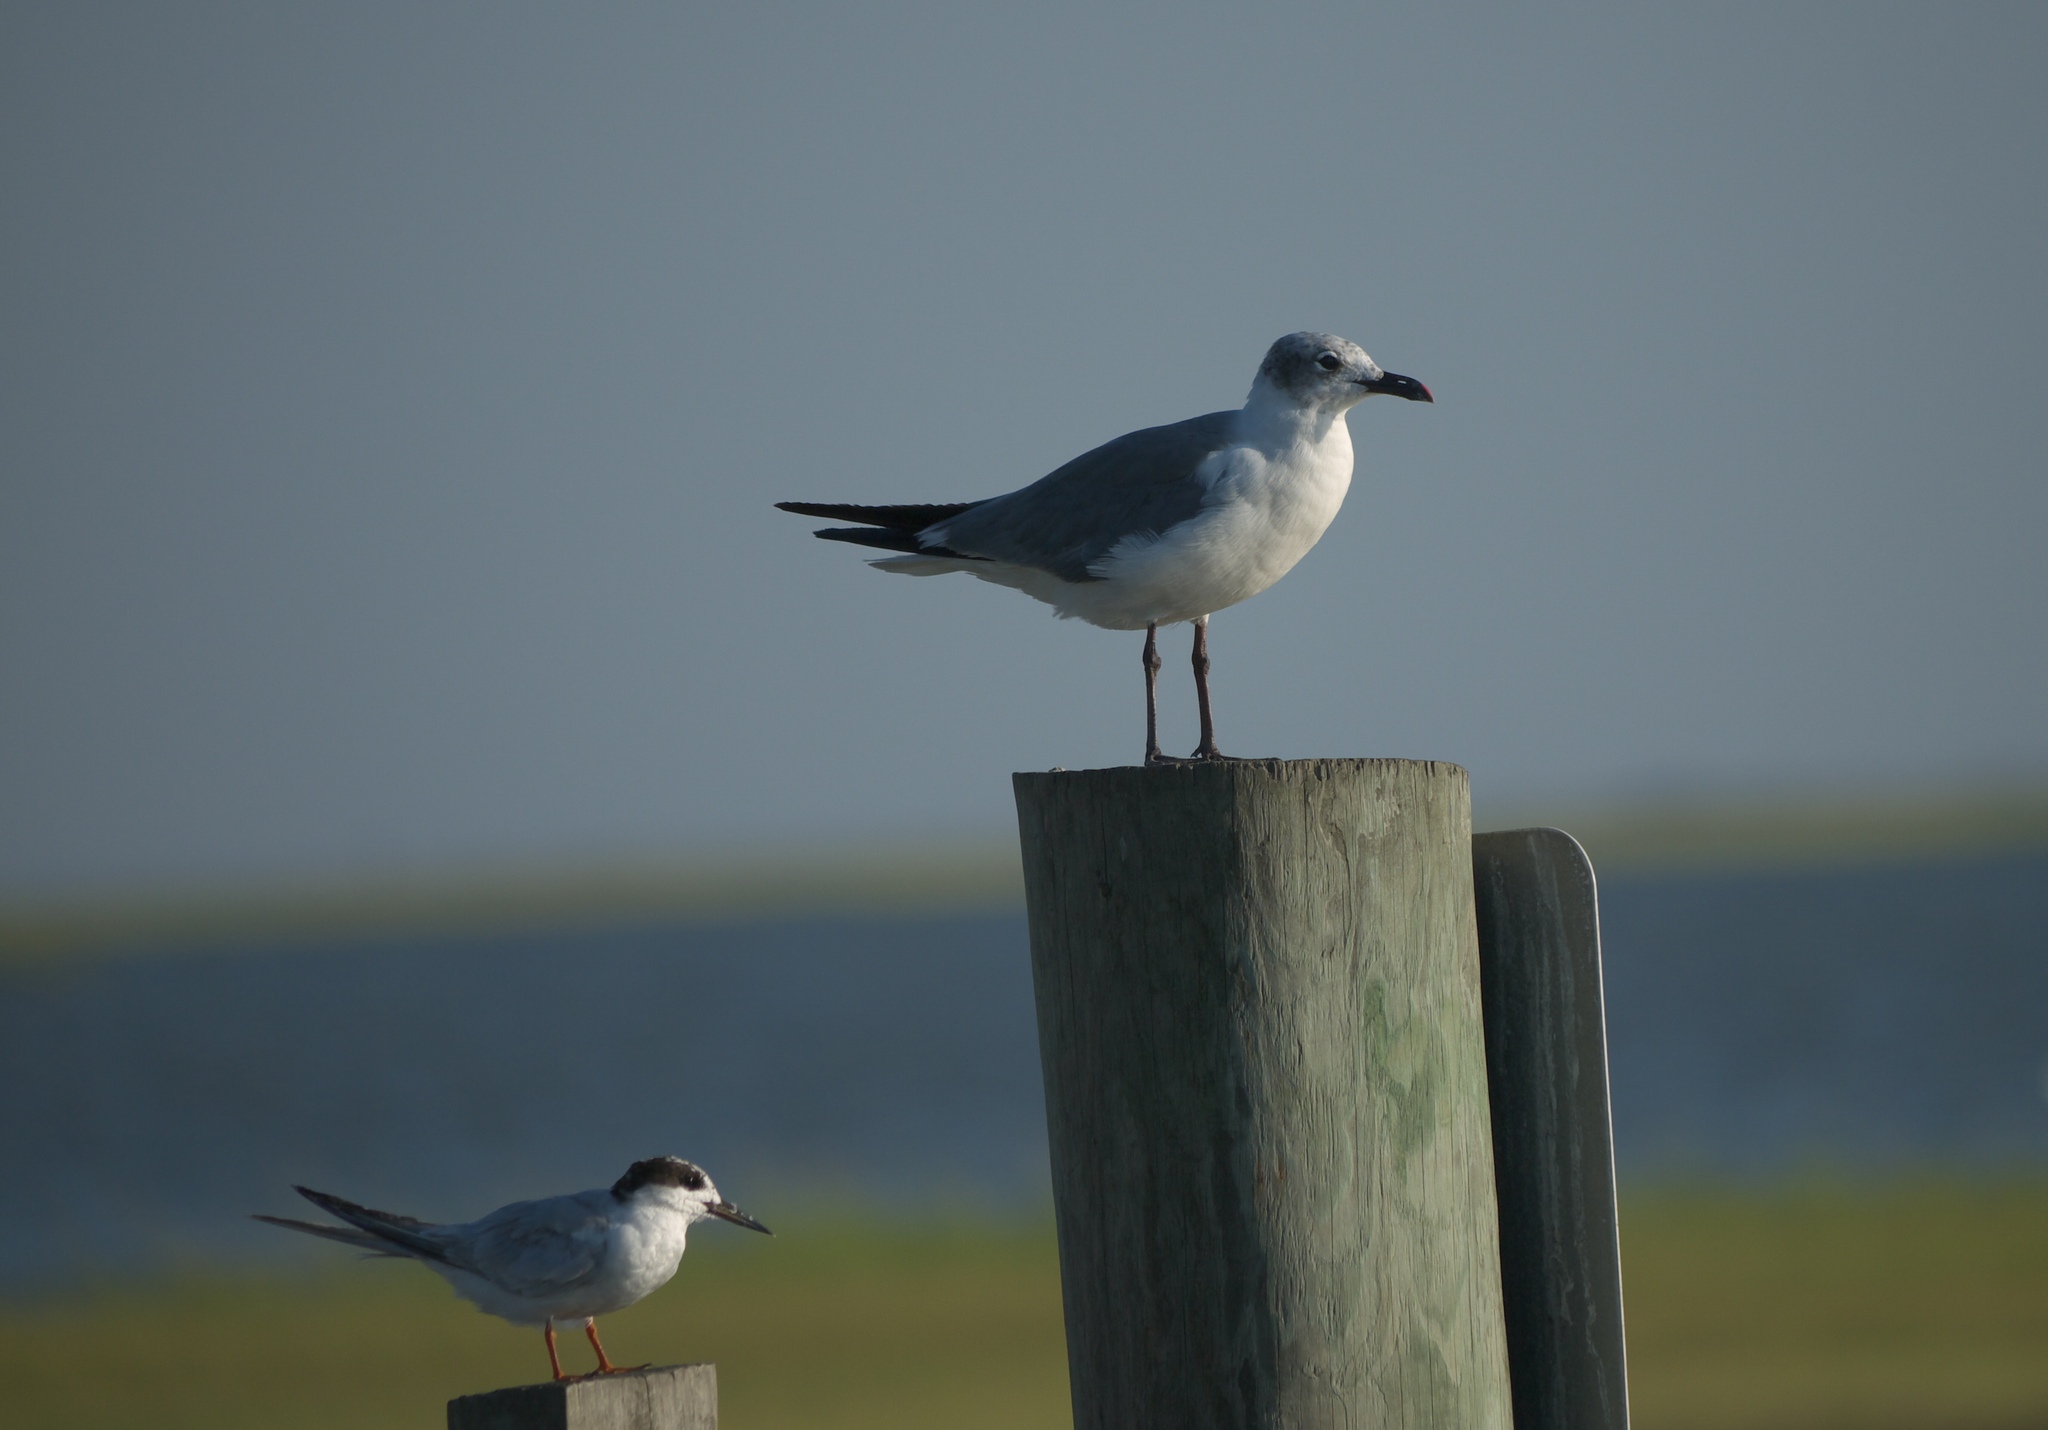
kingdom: Animalia
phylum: Chordata
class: Aves
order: Charadriiformes
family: Laridae
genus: Leucophaeus
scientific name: Leucophaeus atricilla
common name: Laughing gull
